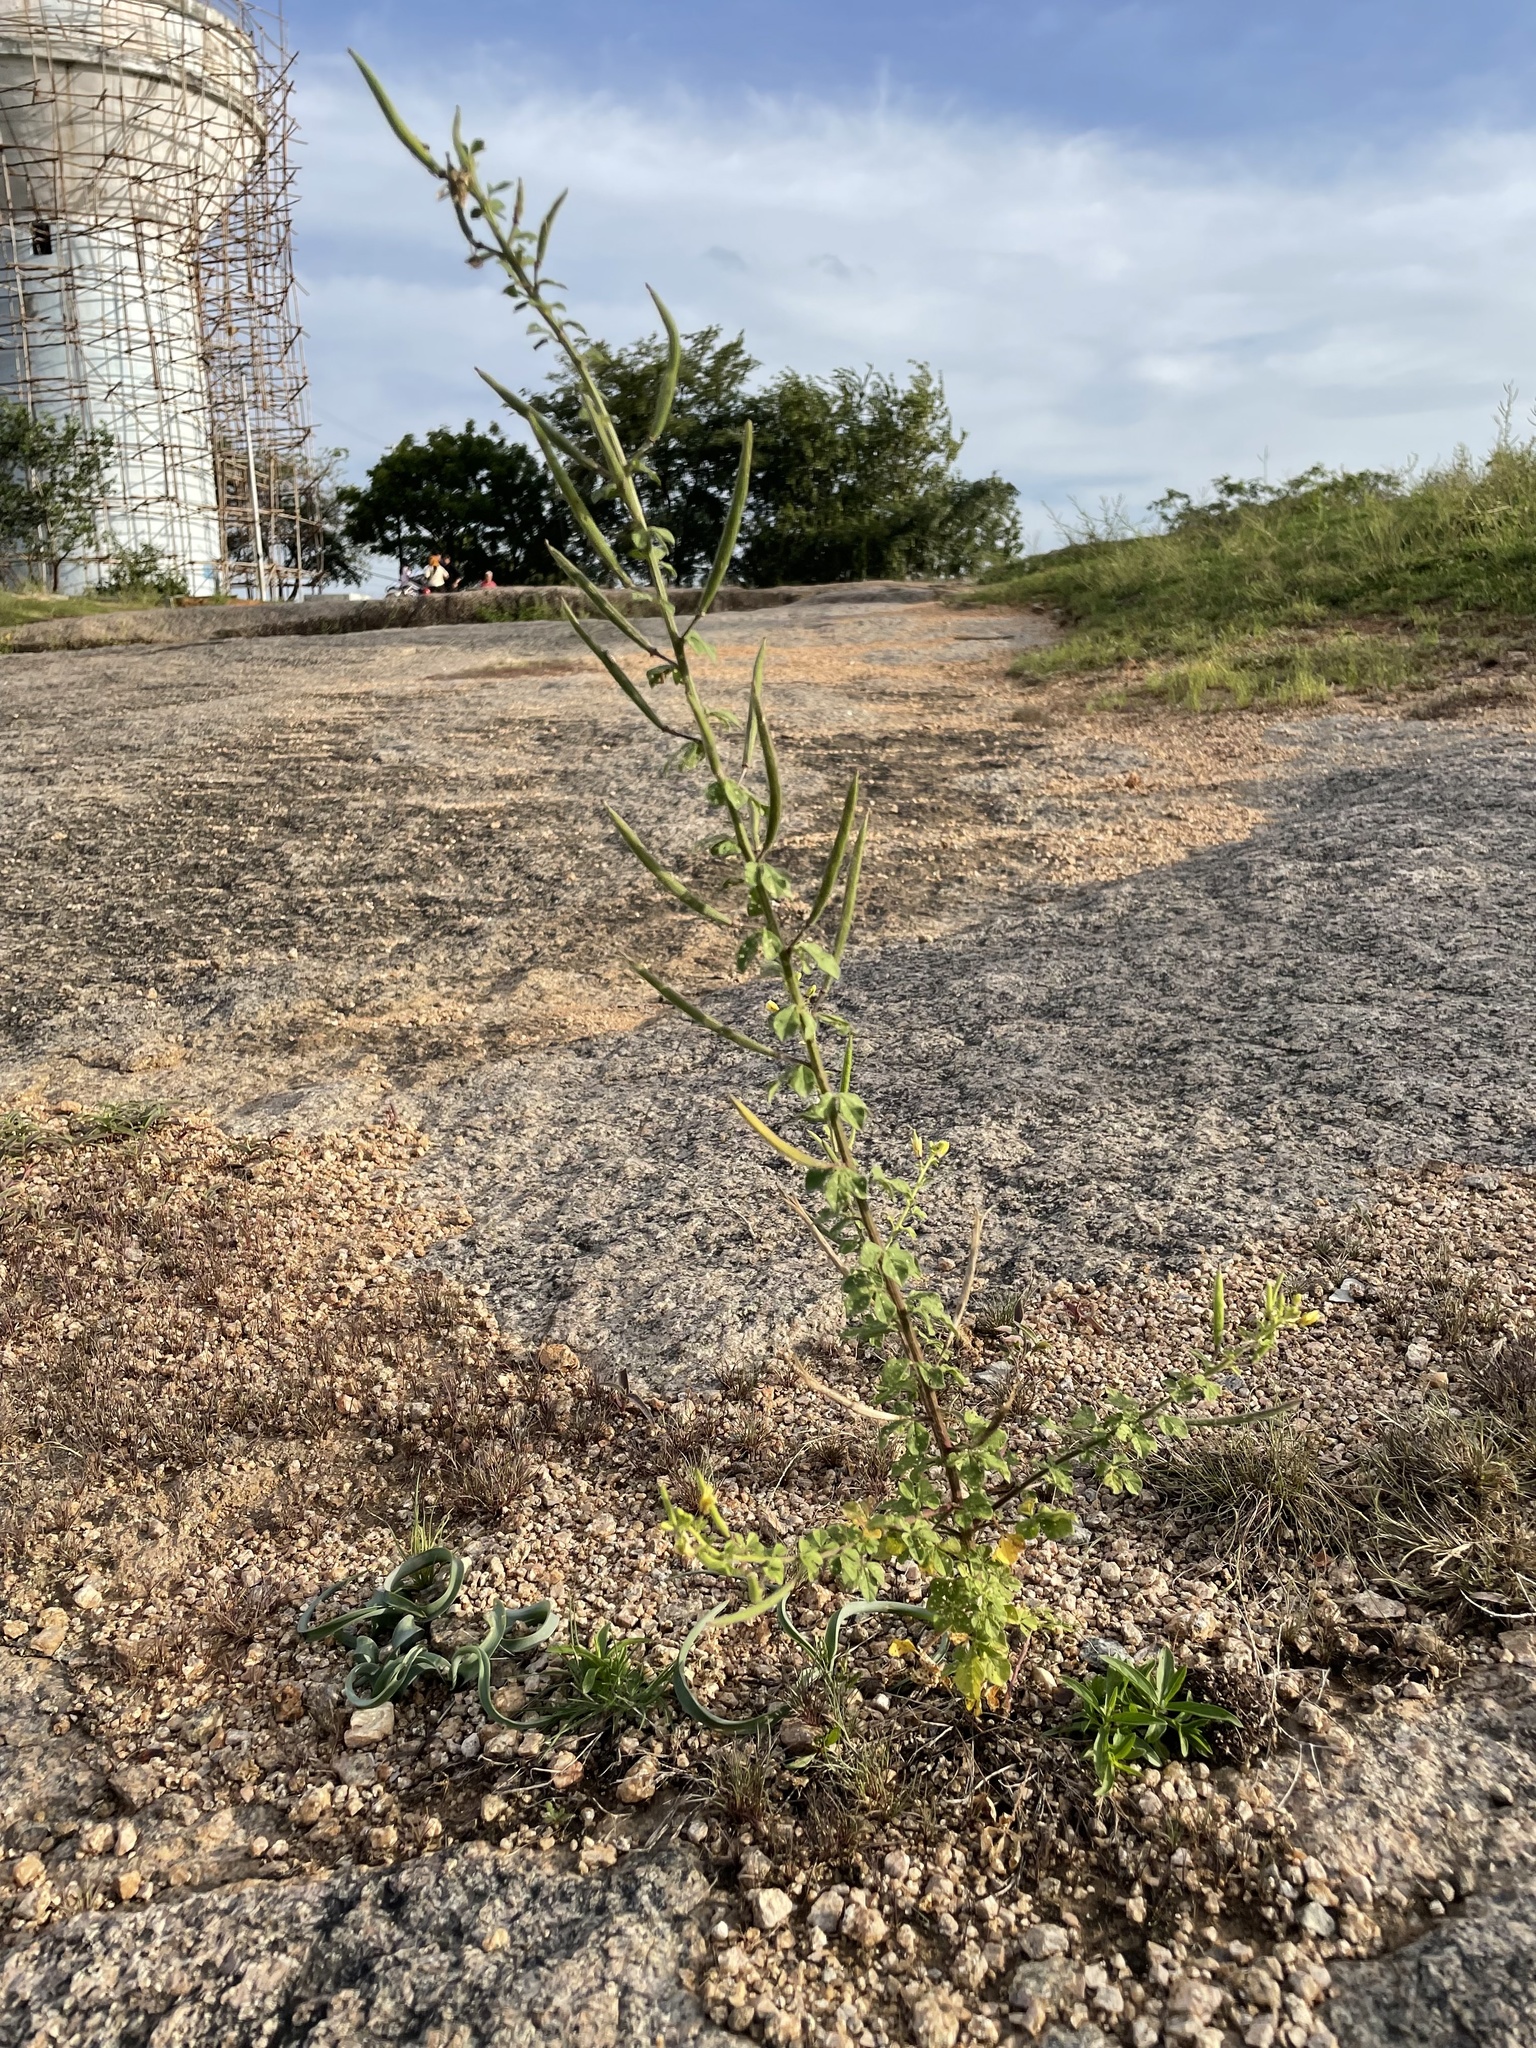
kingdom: Plantae
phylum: Tracheophyta
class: Magnoliopsida
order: Brassicales
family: Cleomaceae
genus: Arivela
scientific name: Arivela viscosa
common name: Asian spiderflower
